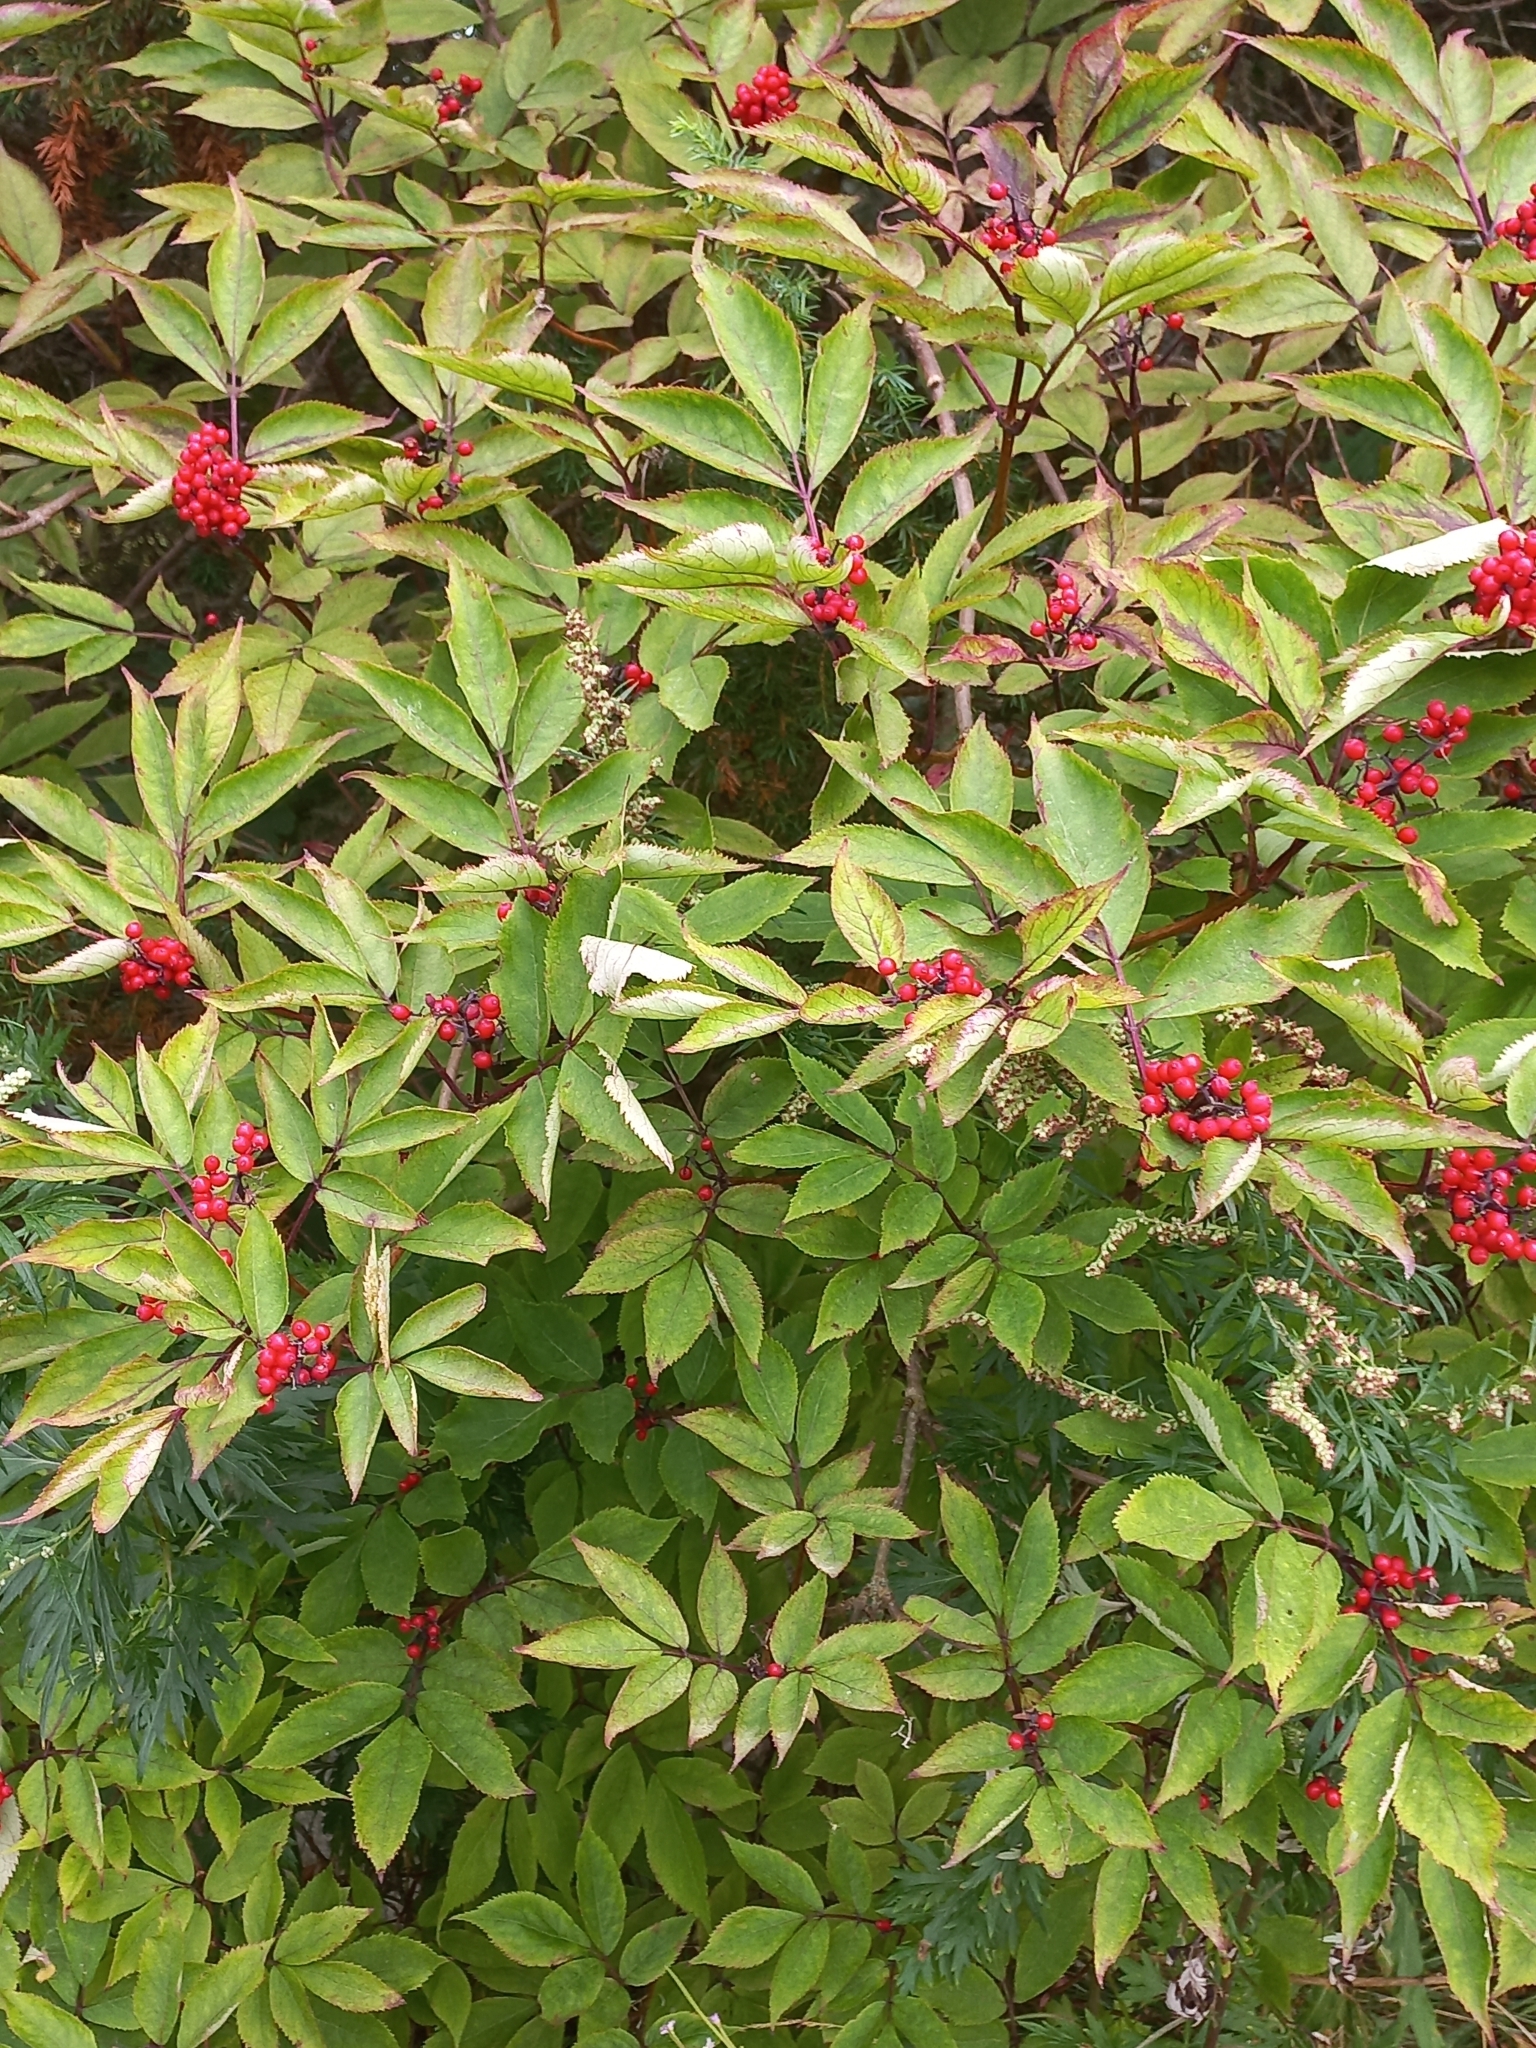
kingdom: Plantae
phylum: Tracheophyta
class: Magnoliopsida
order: Dipsacales
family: Viburnaceae
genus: Sambucus
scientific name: Sambucus racemosa
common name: Red-berried elder
